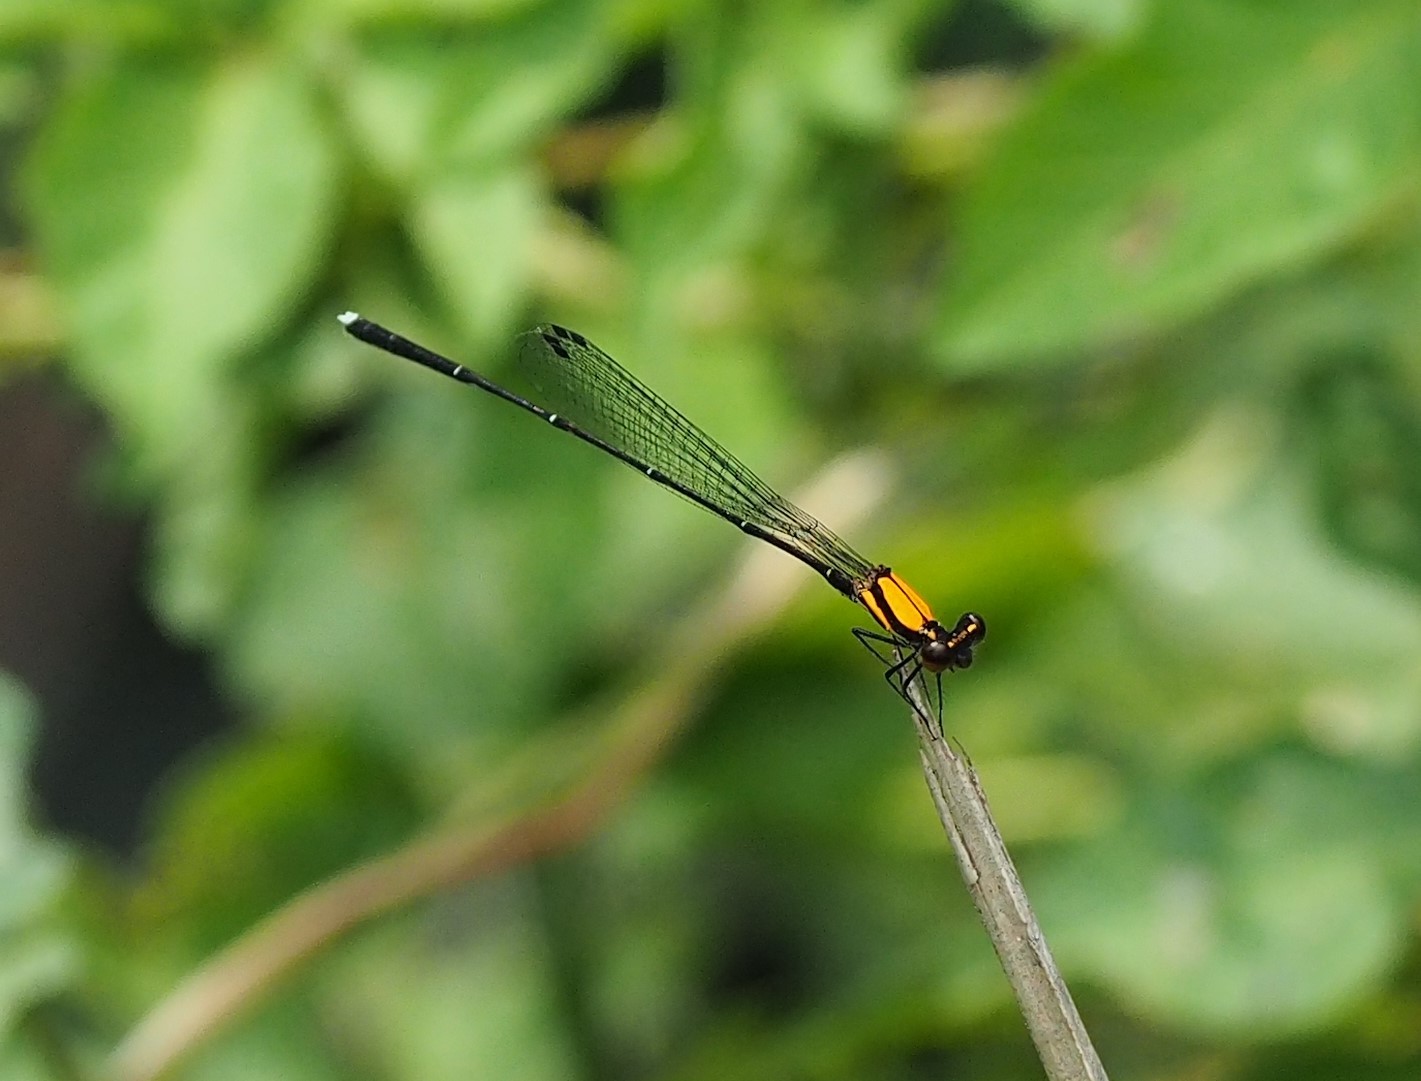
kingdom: Animalia
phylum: Arthropoda
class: Insecta
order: Odonata
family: Platycnemididae
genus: Prodasineura
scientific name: Prodasineura croconota
